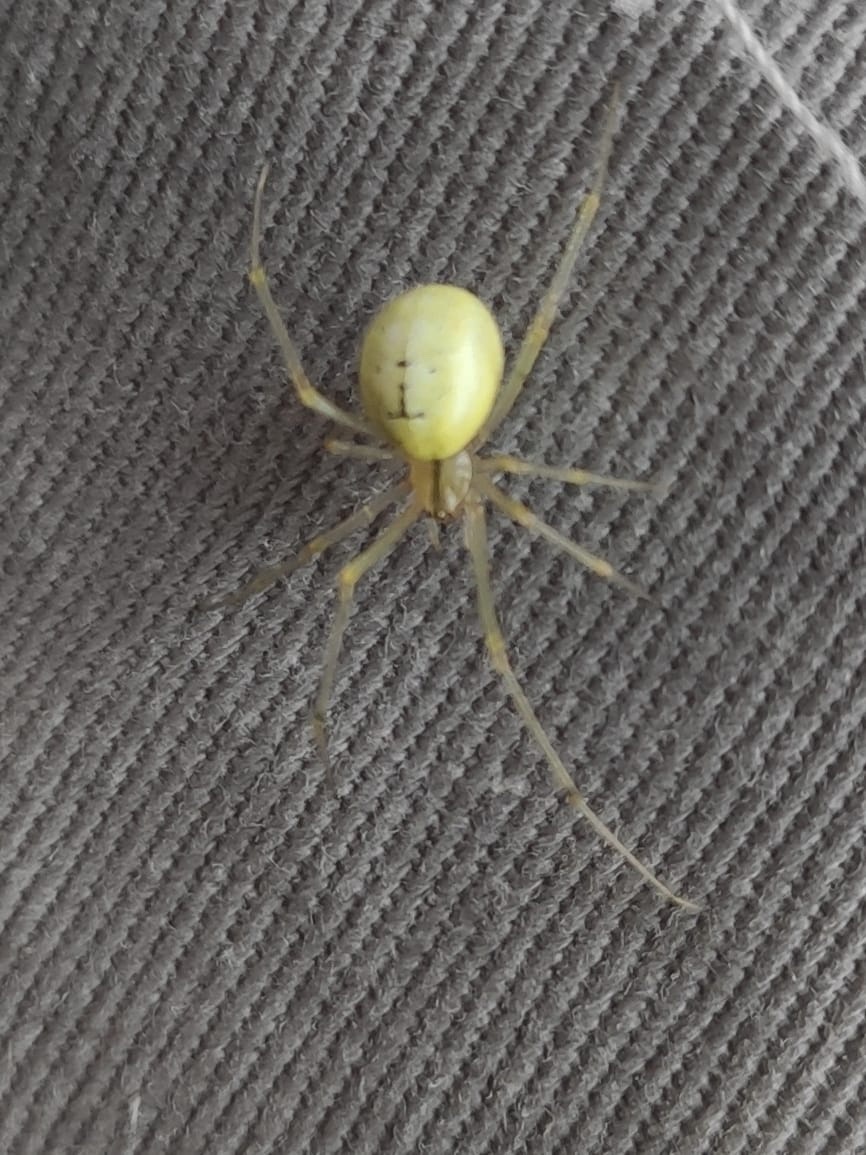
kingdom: Animalia
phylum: Arthropoda
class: Arachnida
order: Araneae
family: Theridiidae
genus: Enoplognatha
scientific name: Enoplognatha
